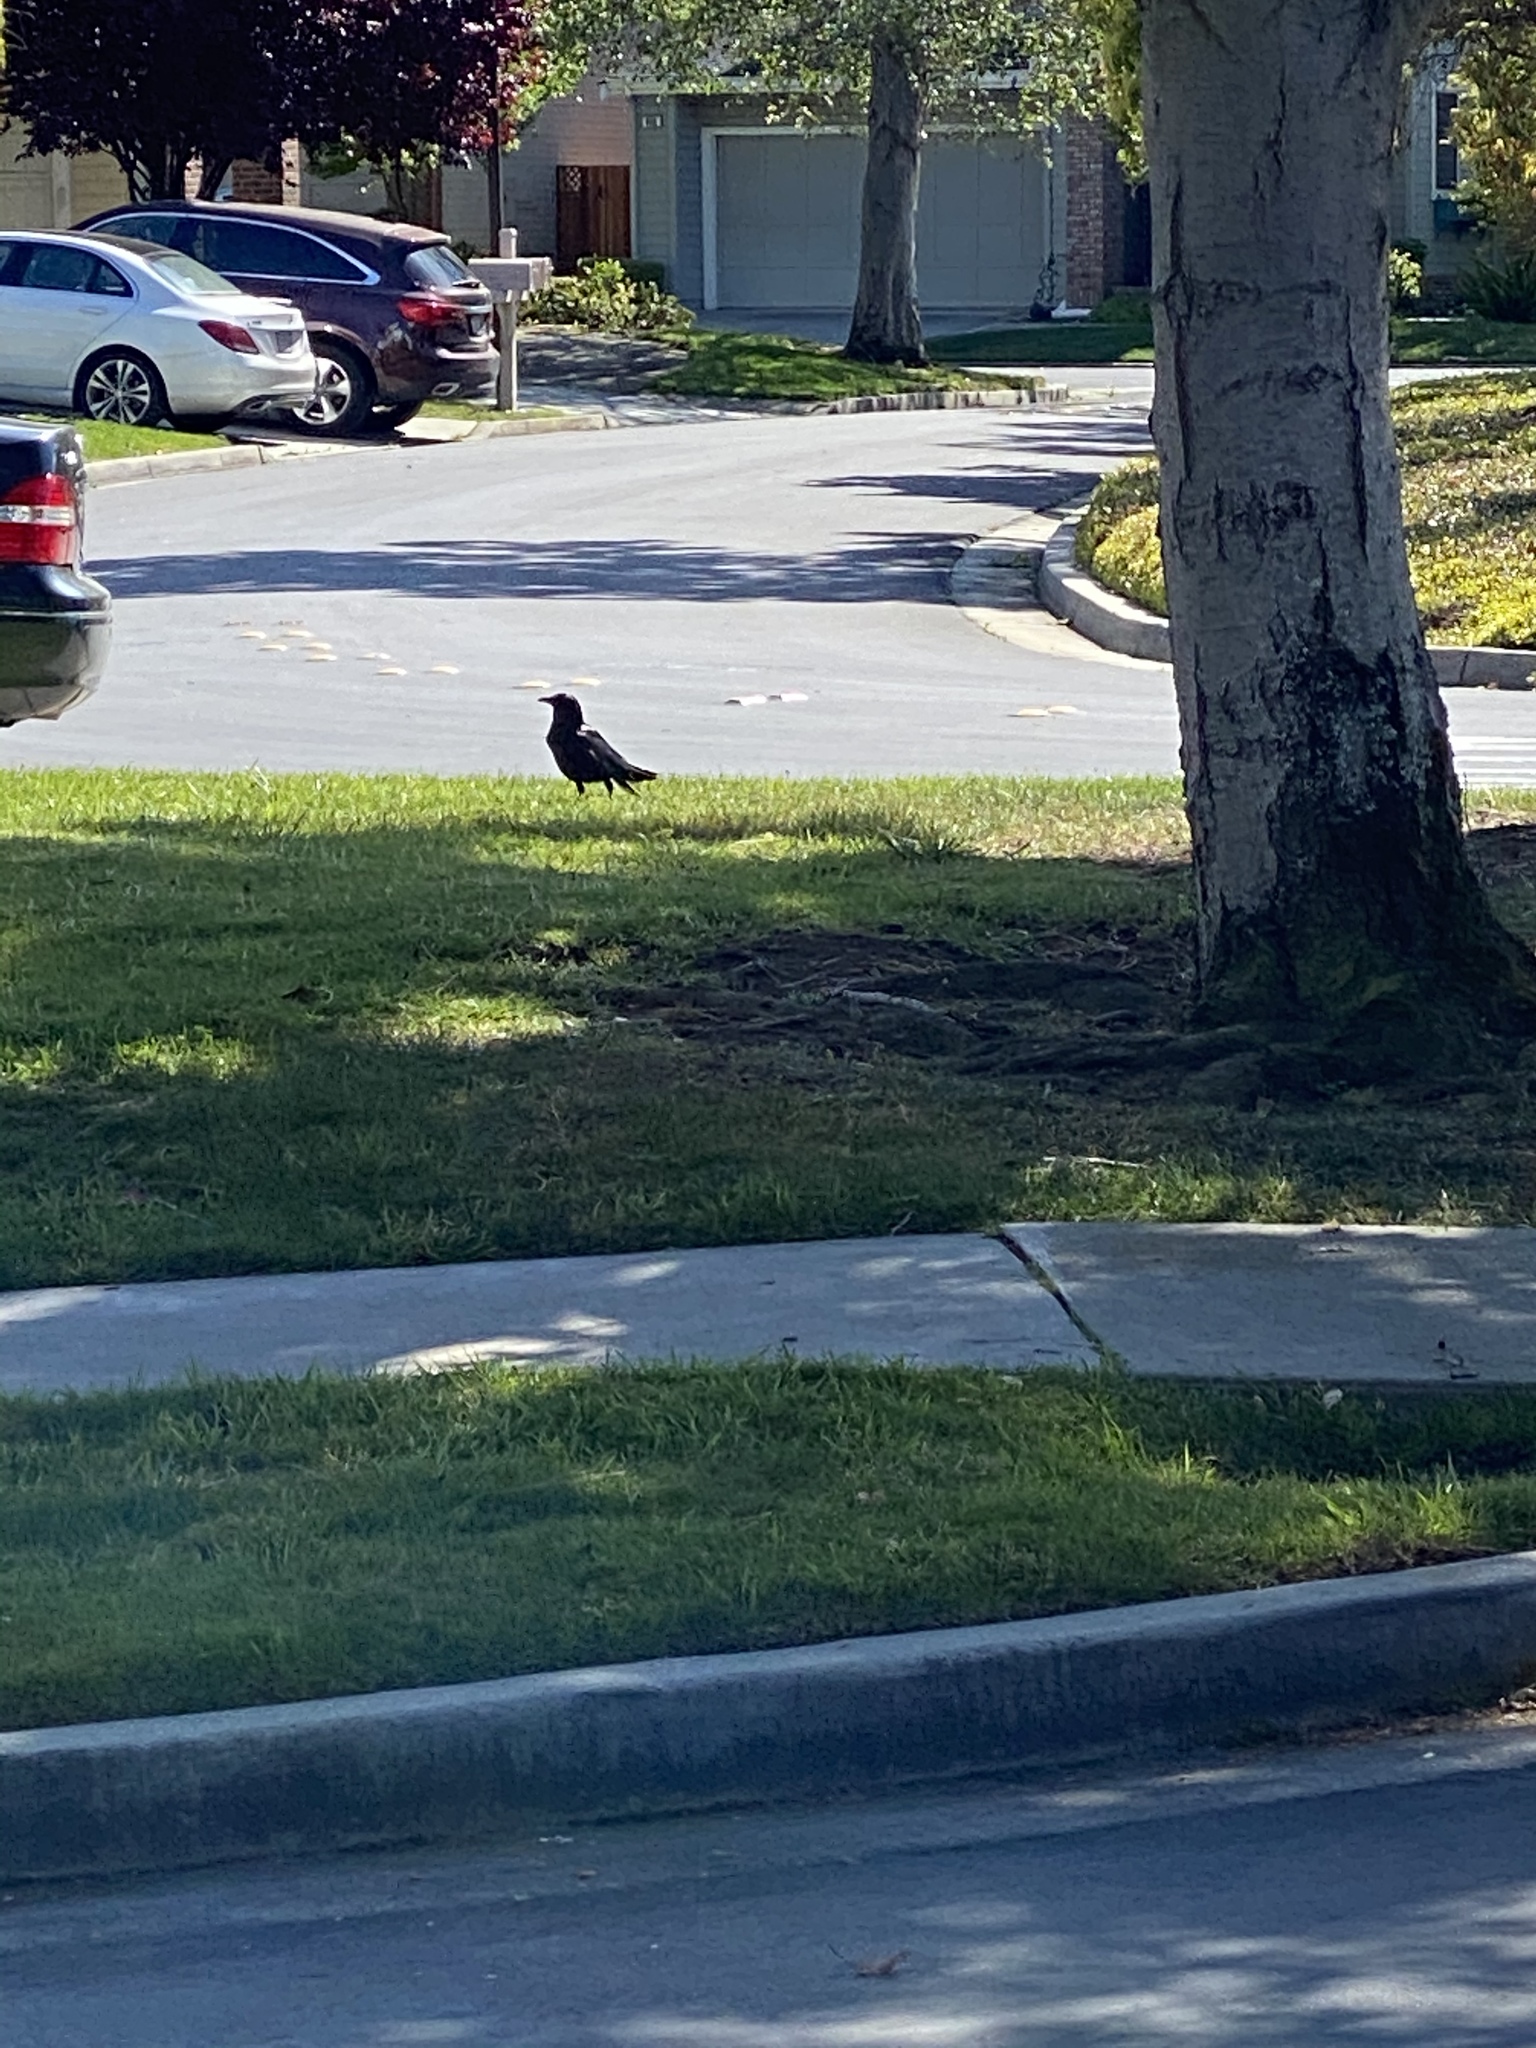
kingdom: Animalia
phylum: Chordata
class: Aves
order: Passeriformes
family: Corvidae
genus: Corvus
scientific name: Corvus brachyrhynchos
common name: American crow
